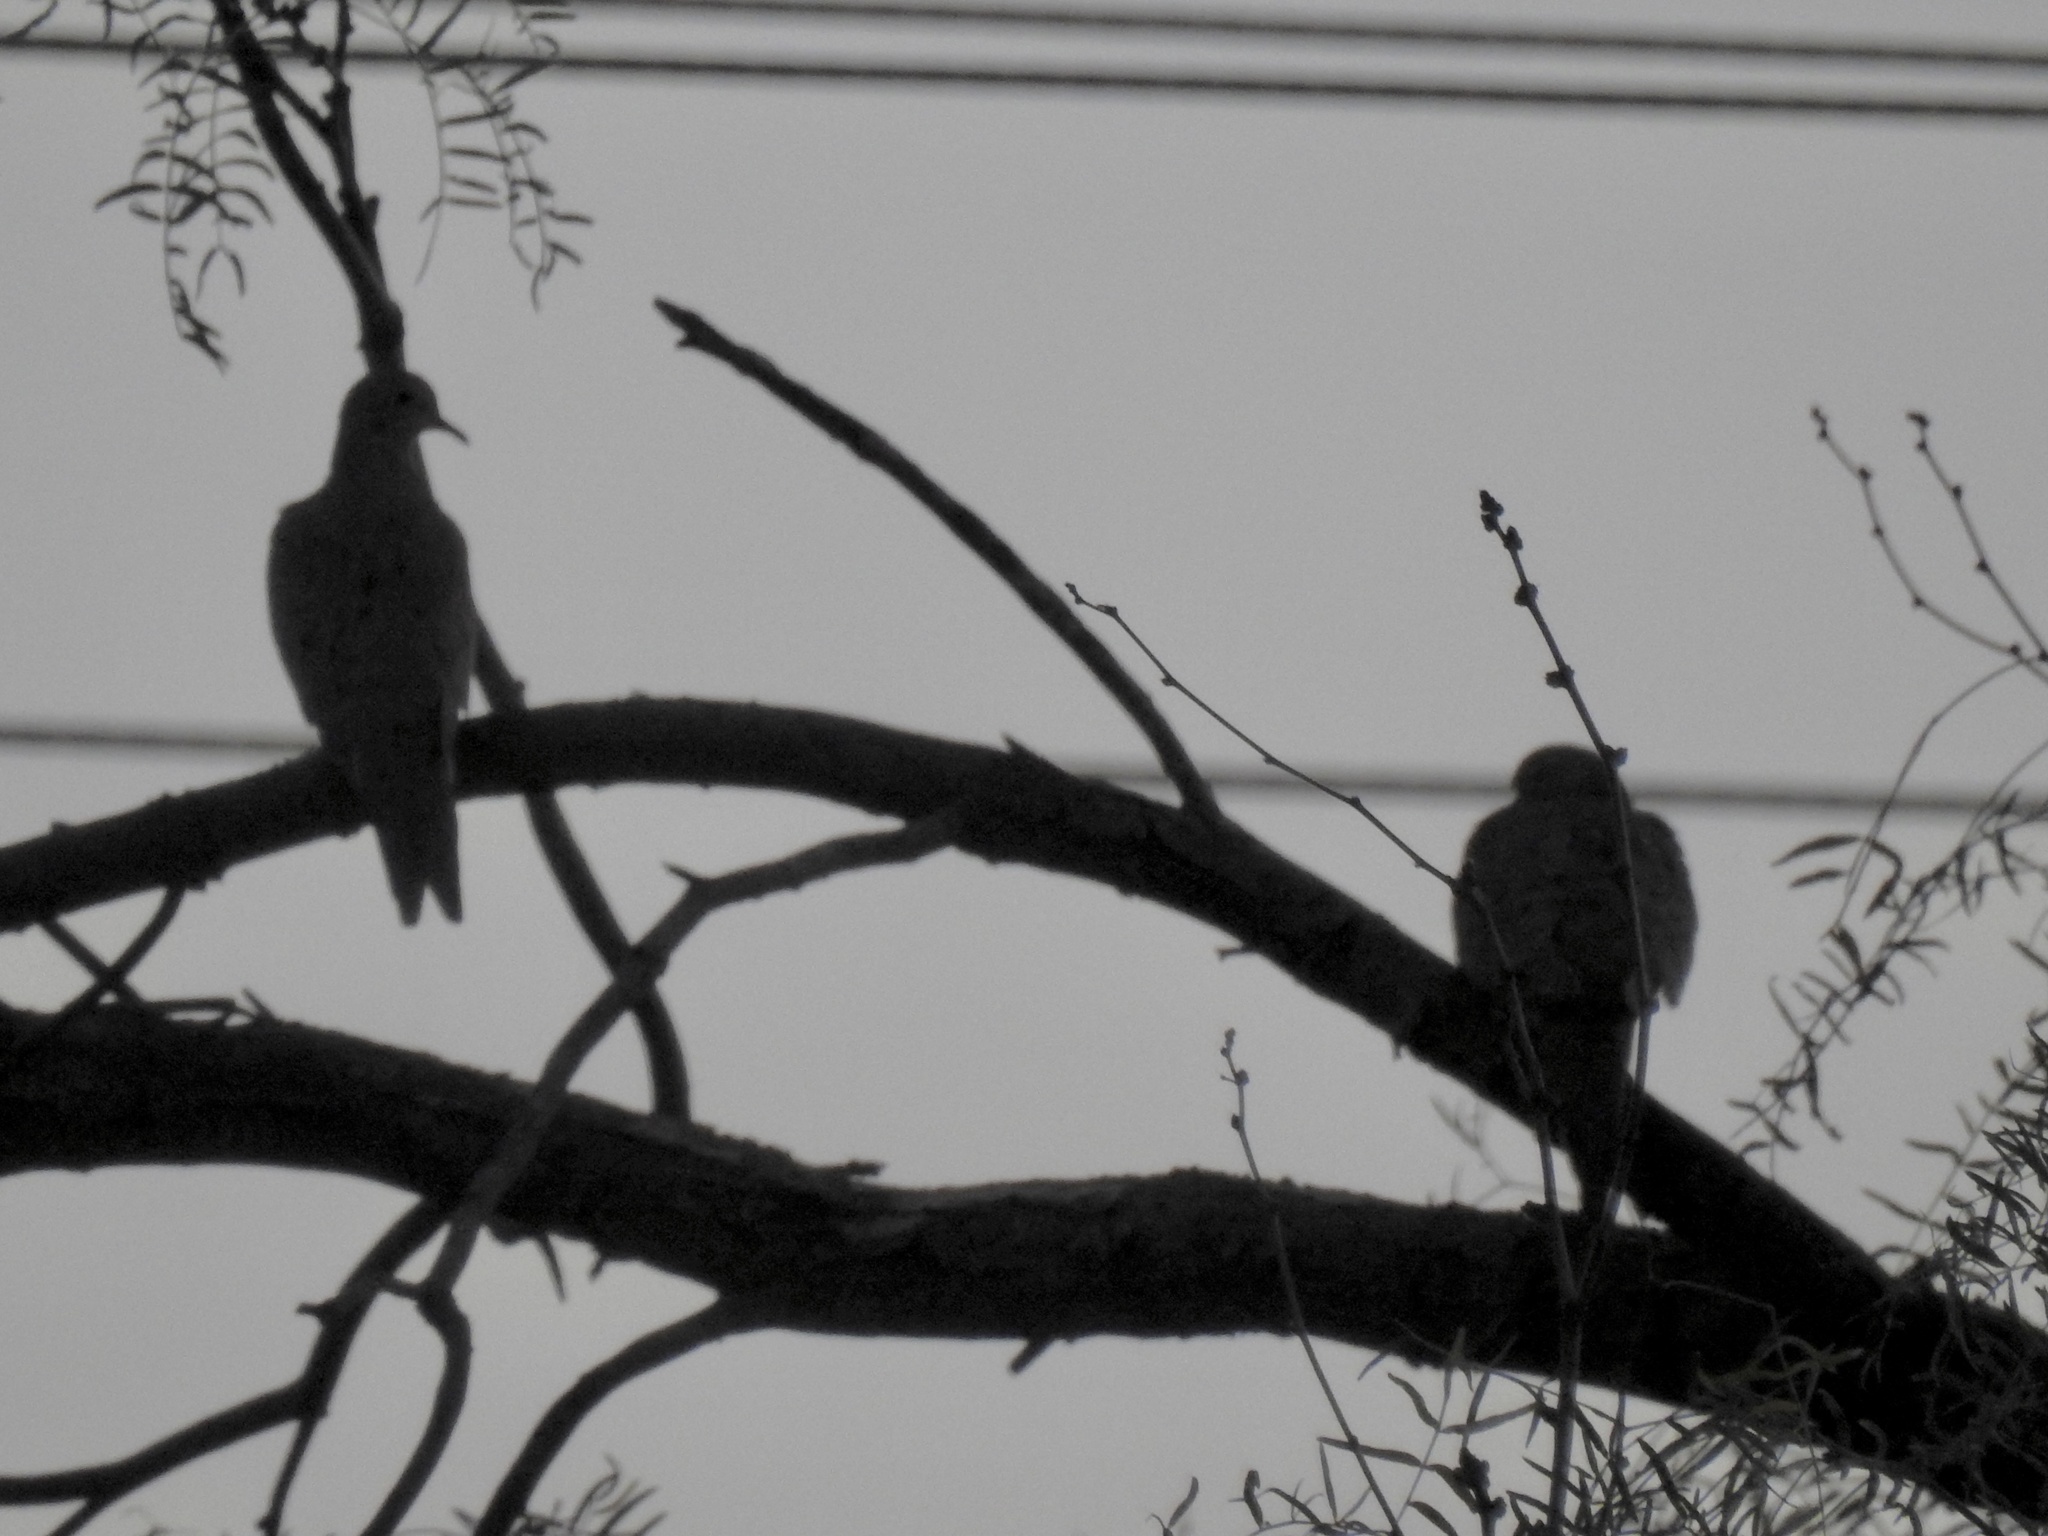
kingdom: Animalia
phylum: Chordata
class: Aves
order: Columbiformes
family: Columbidae
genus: Zenaida
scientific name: Zenaida macroura
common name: Mourning dove
